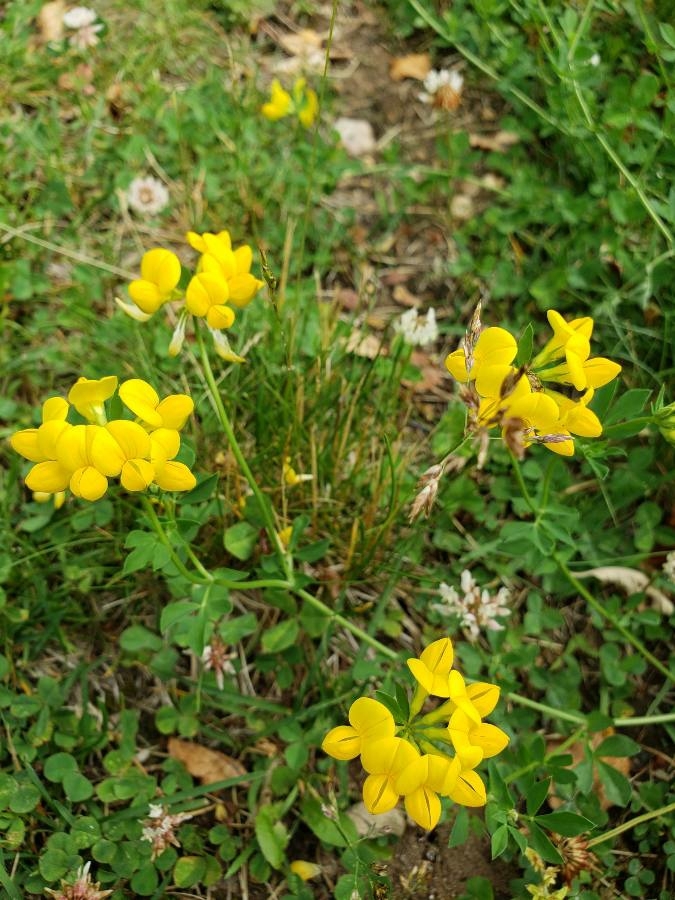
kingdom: Plantae
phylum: Tracheophyta
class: Magnoliopsida
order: Fabales
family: Fabaceae
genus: Lotus
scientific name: Lotus corniculatus
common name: Common bird's-foot-trefoil
